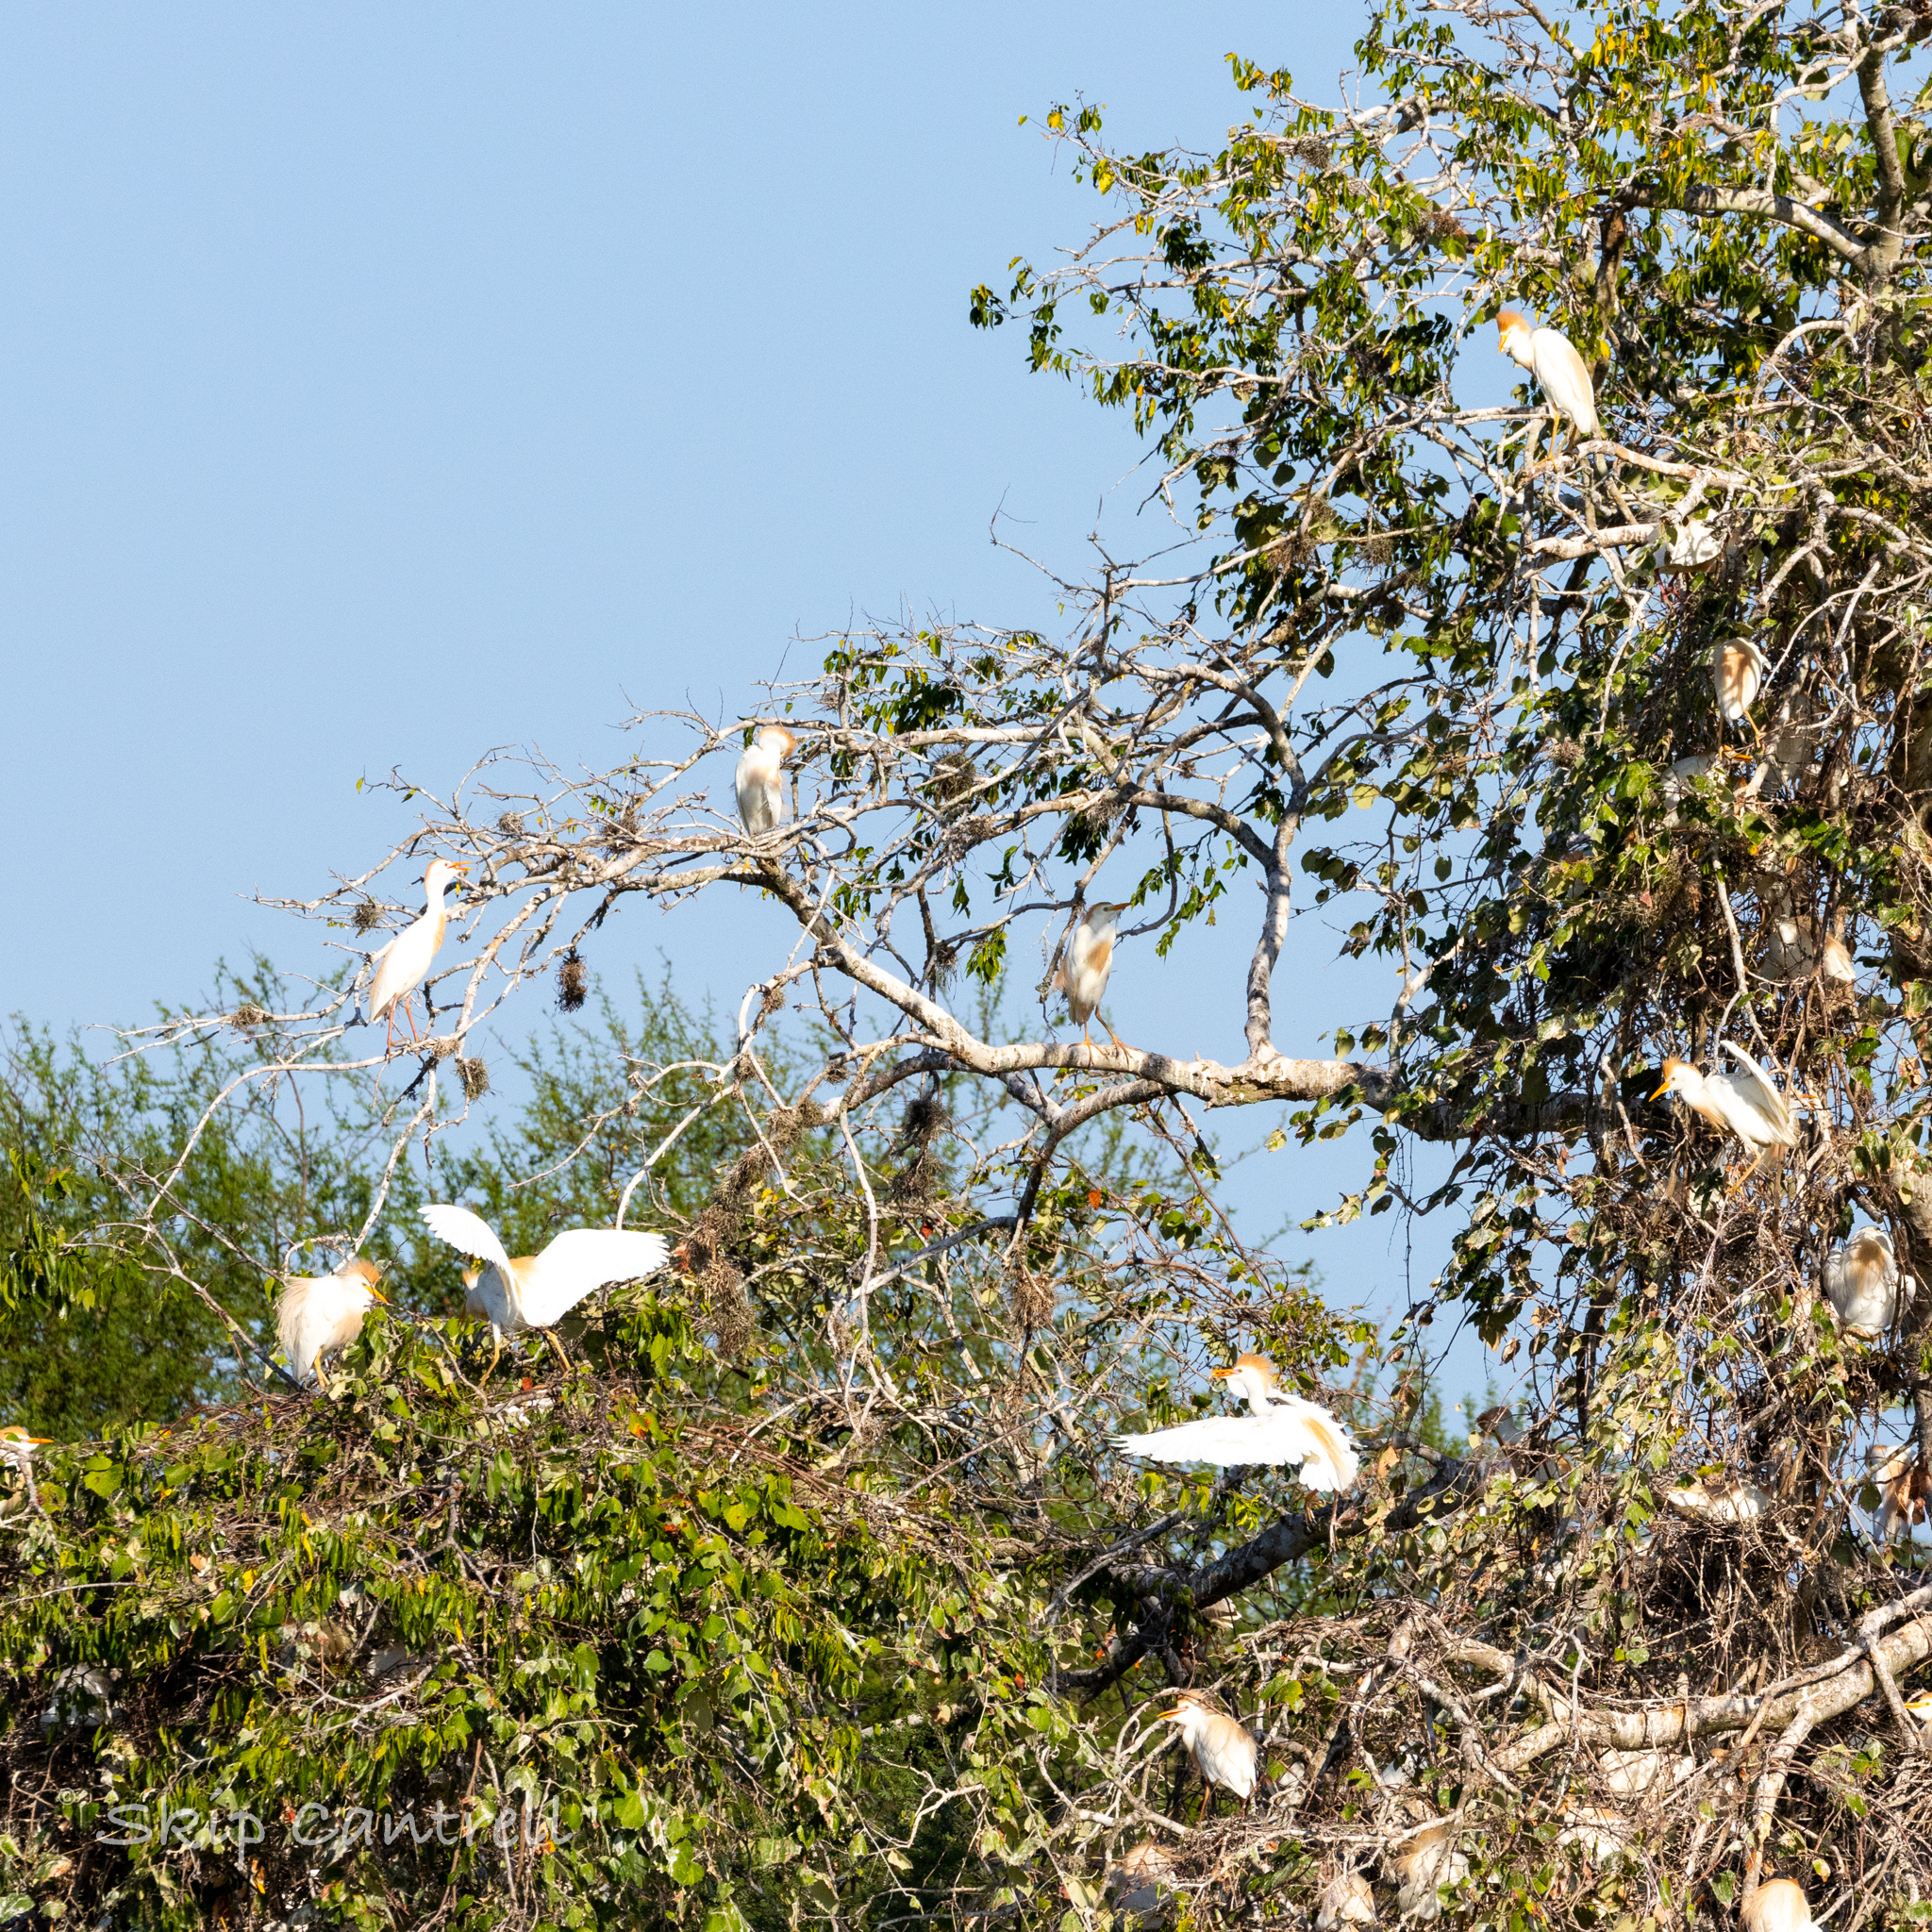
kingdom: Animalia
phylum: Chordata
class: Aves
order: Pelecaniformes
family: Ardeidae
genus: Bubulcus
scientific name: Bubulcus ibis
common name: Cattle egret
